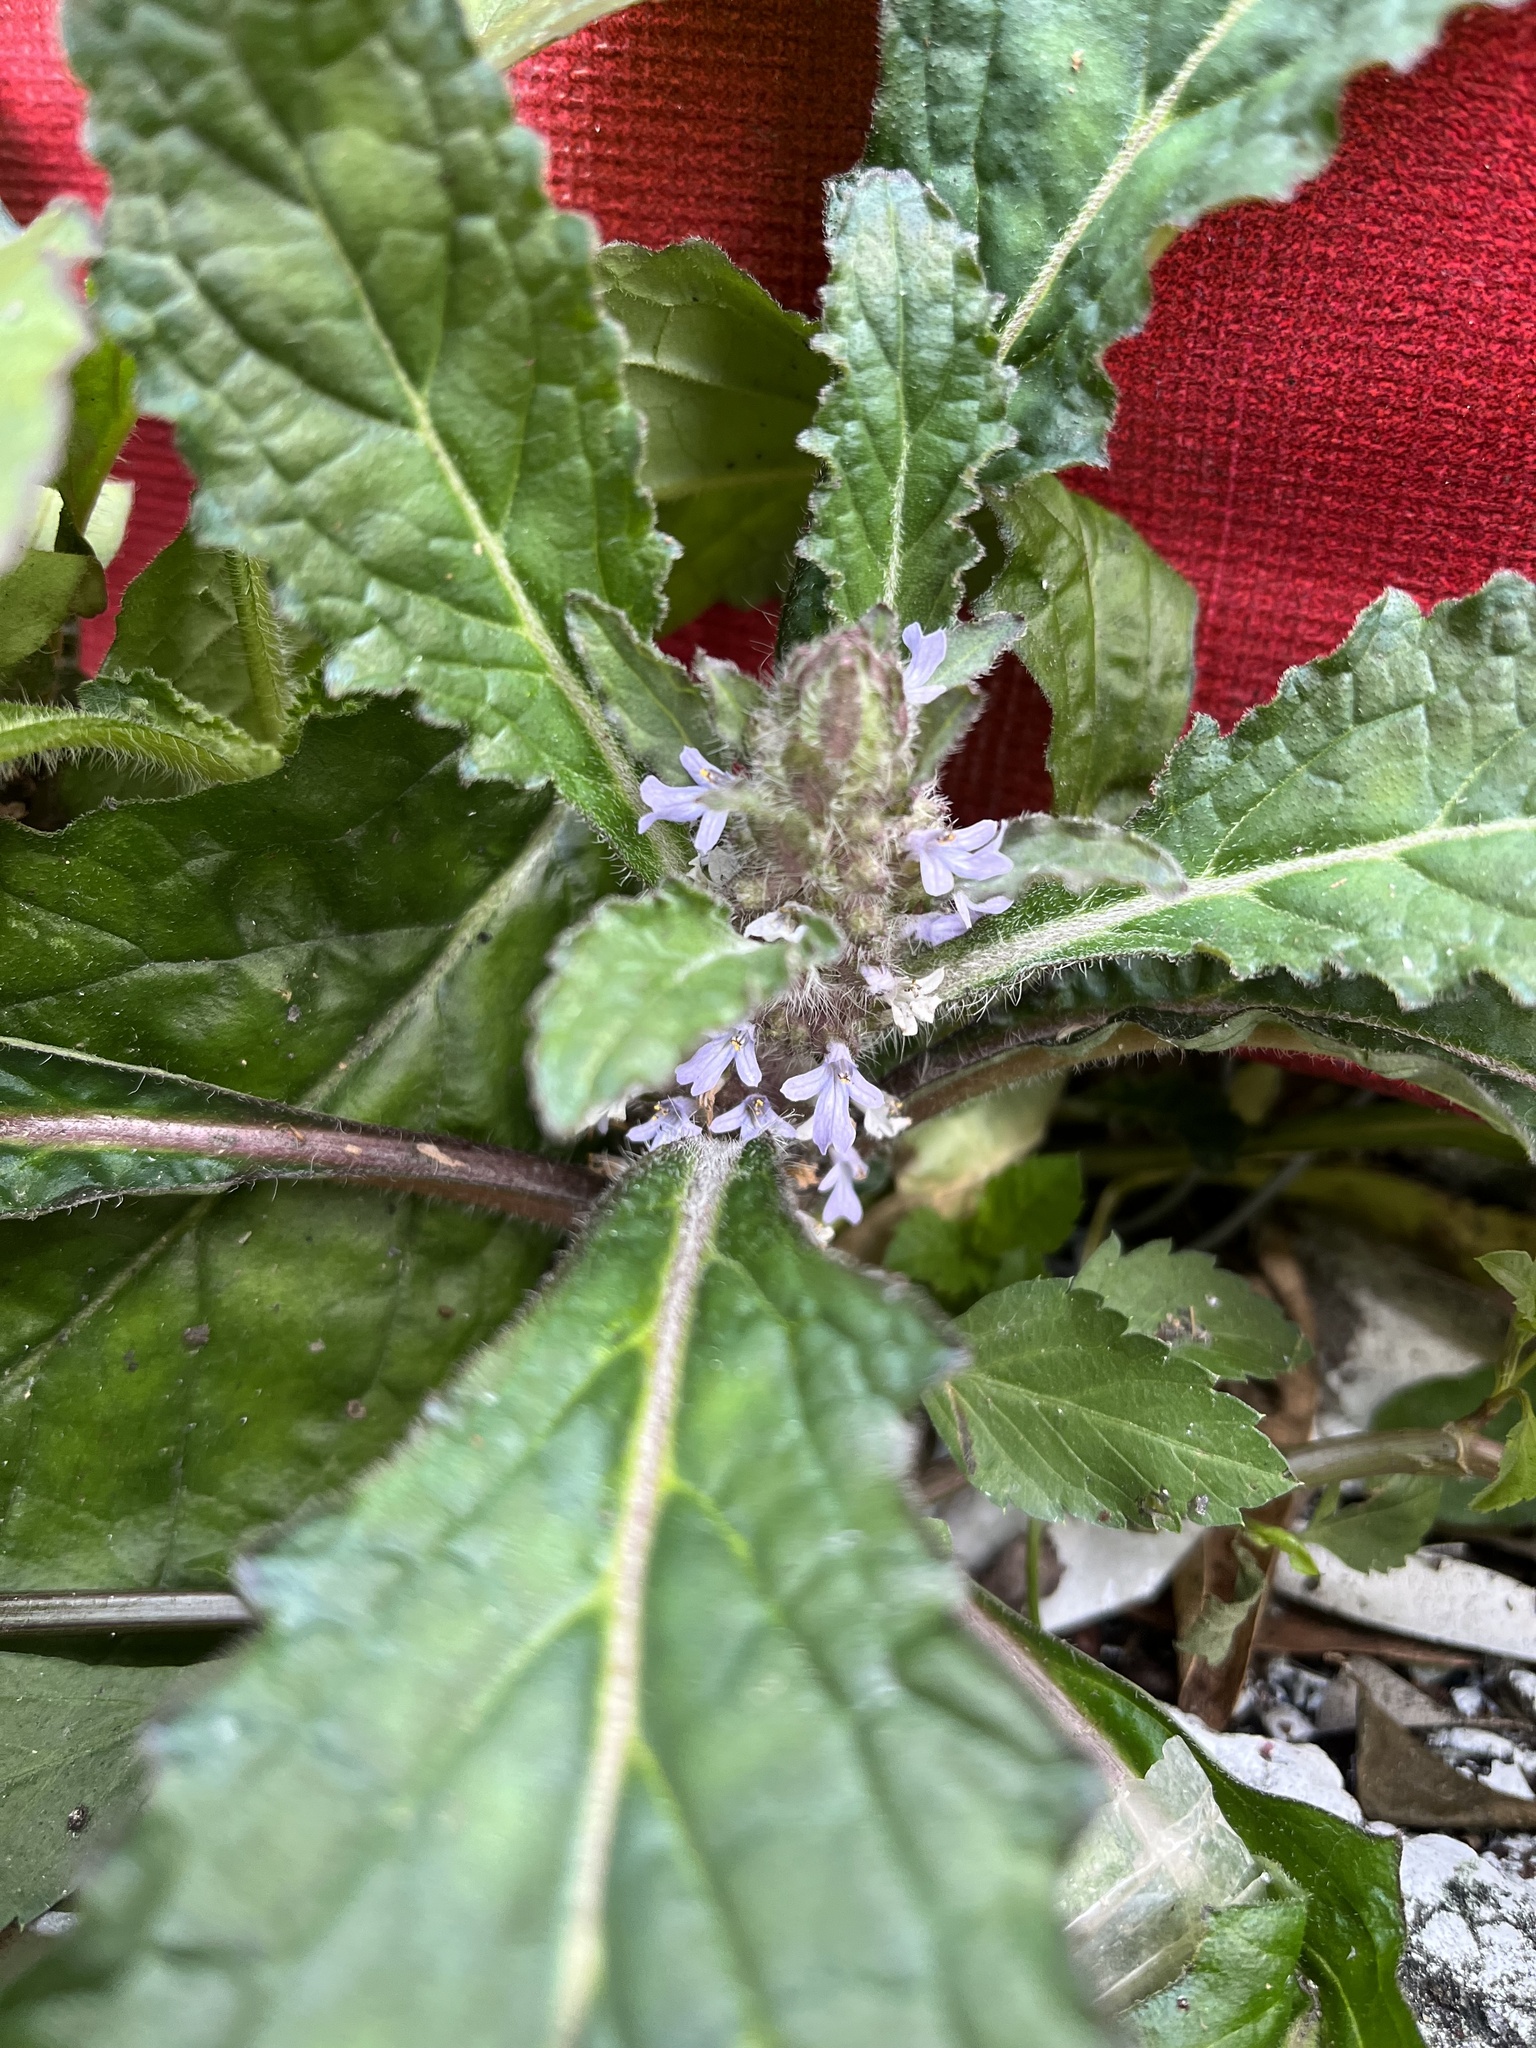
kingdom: Plantae
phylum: Tracheophyta
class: Magnoliopsida
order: Lamiales
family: Lamiaceae
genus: Ajuga
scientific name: Ajuga taiwanensis
